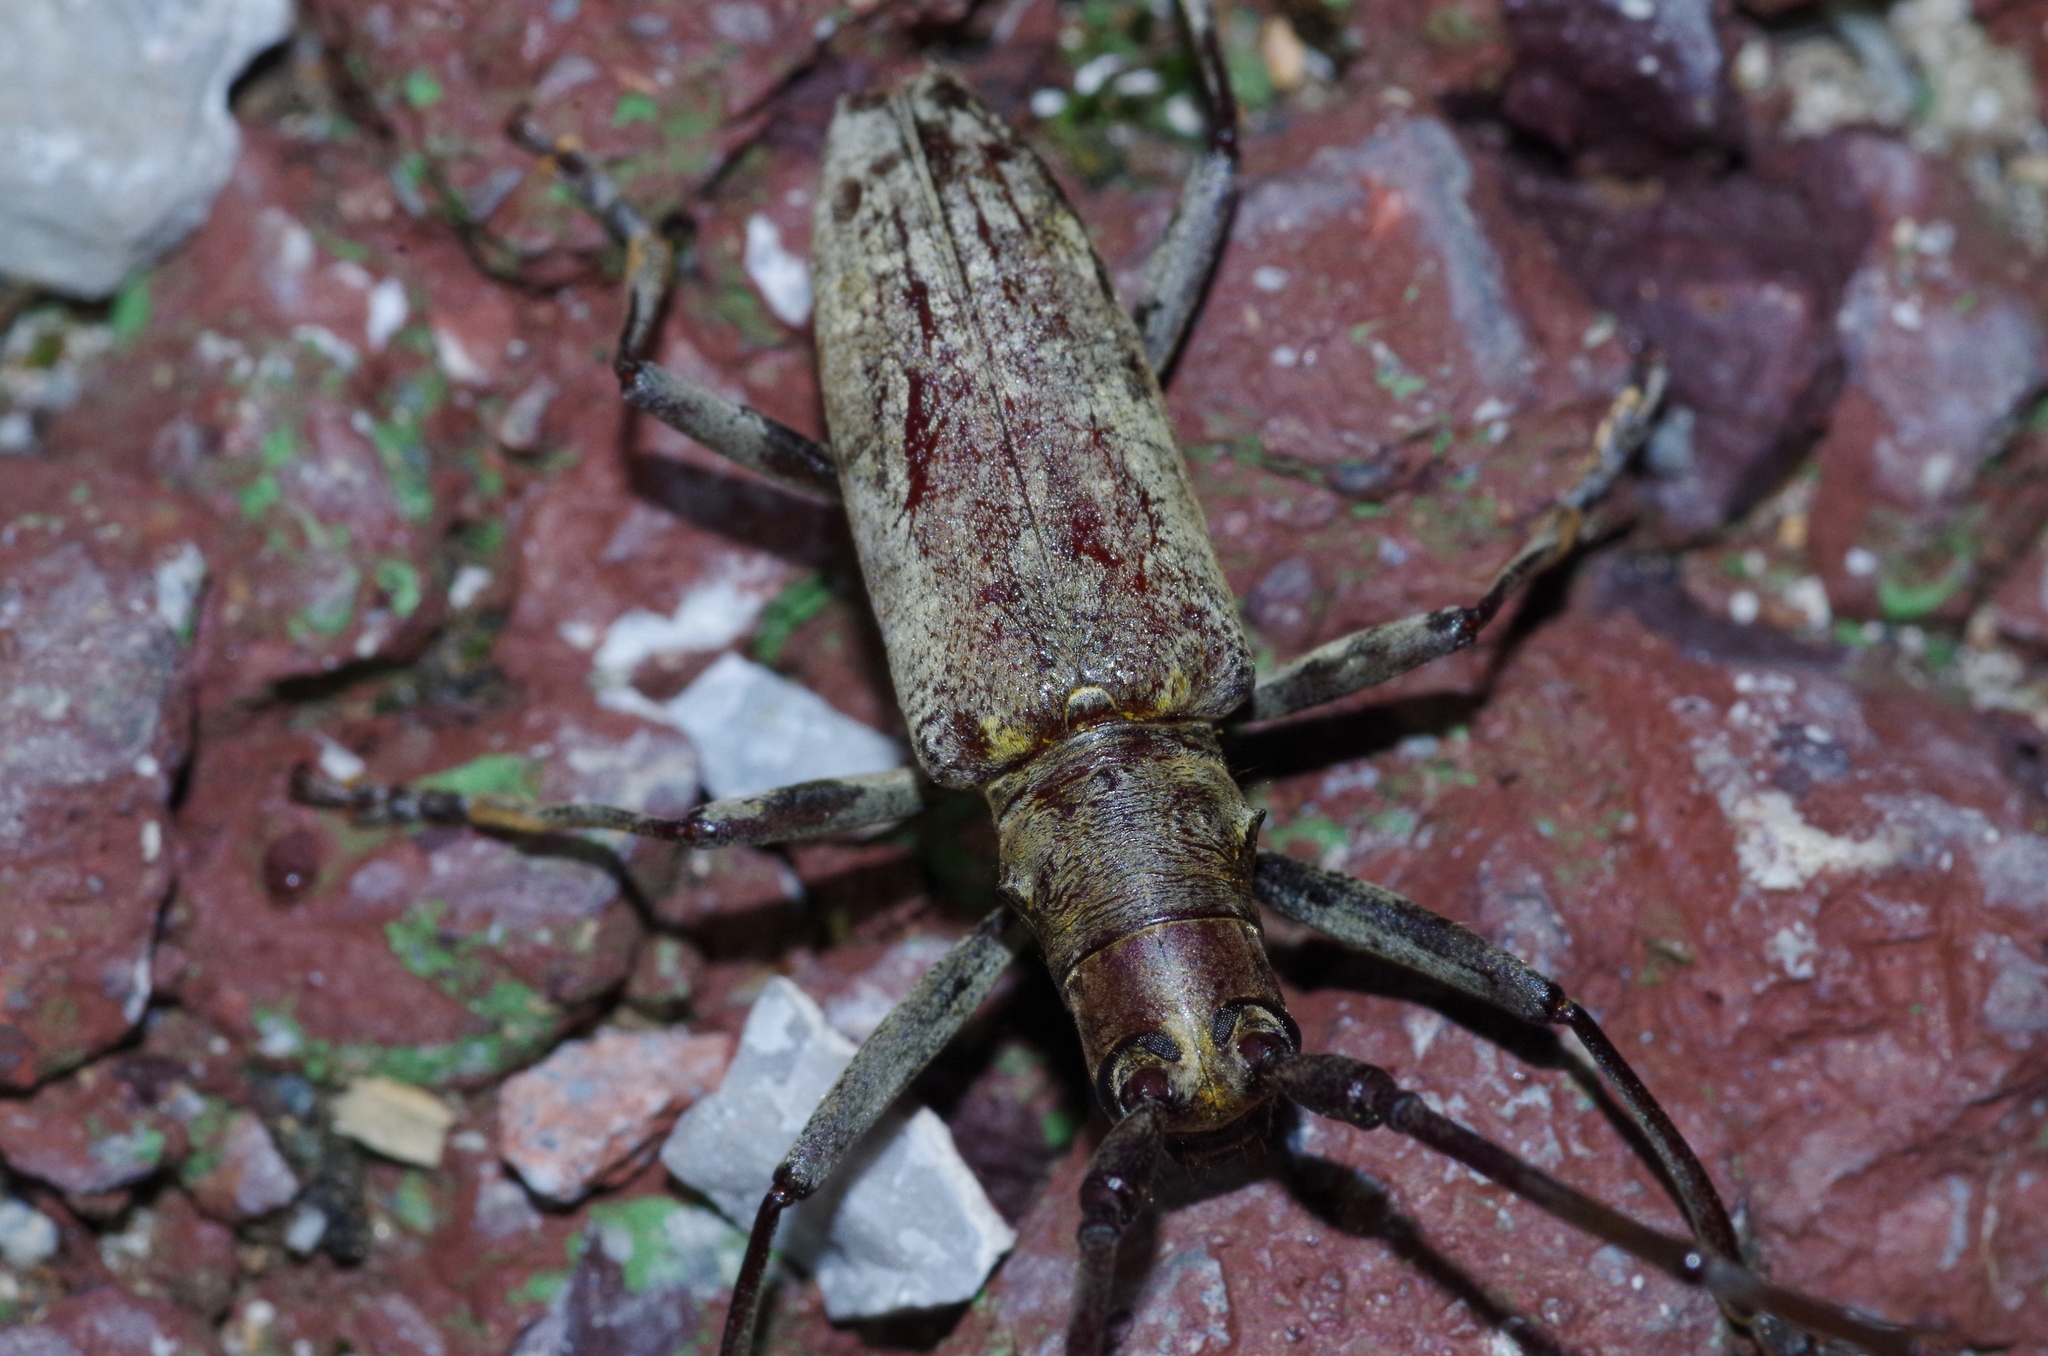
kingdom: Animalia
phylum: Arthropoda
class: Insecta
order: Coleoptera
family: Cerambycidae
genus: Psacothea
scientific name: Psacothea hilaris
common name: Yellow-spotted longicorn beetle
